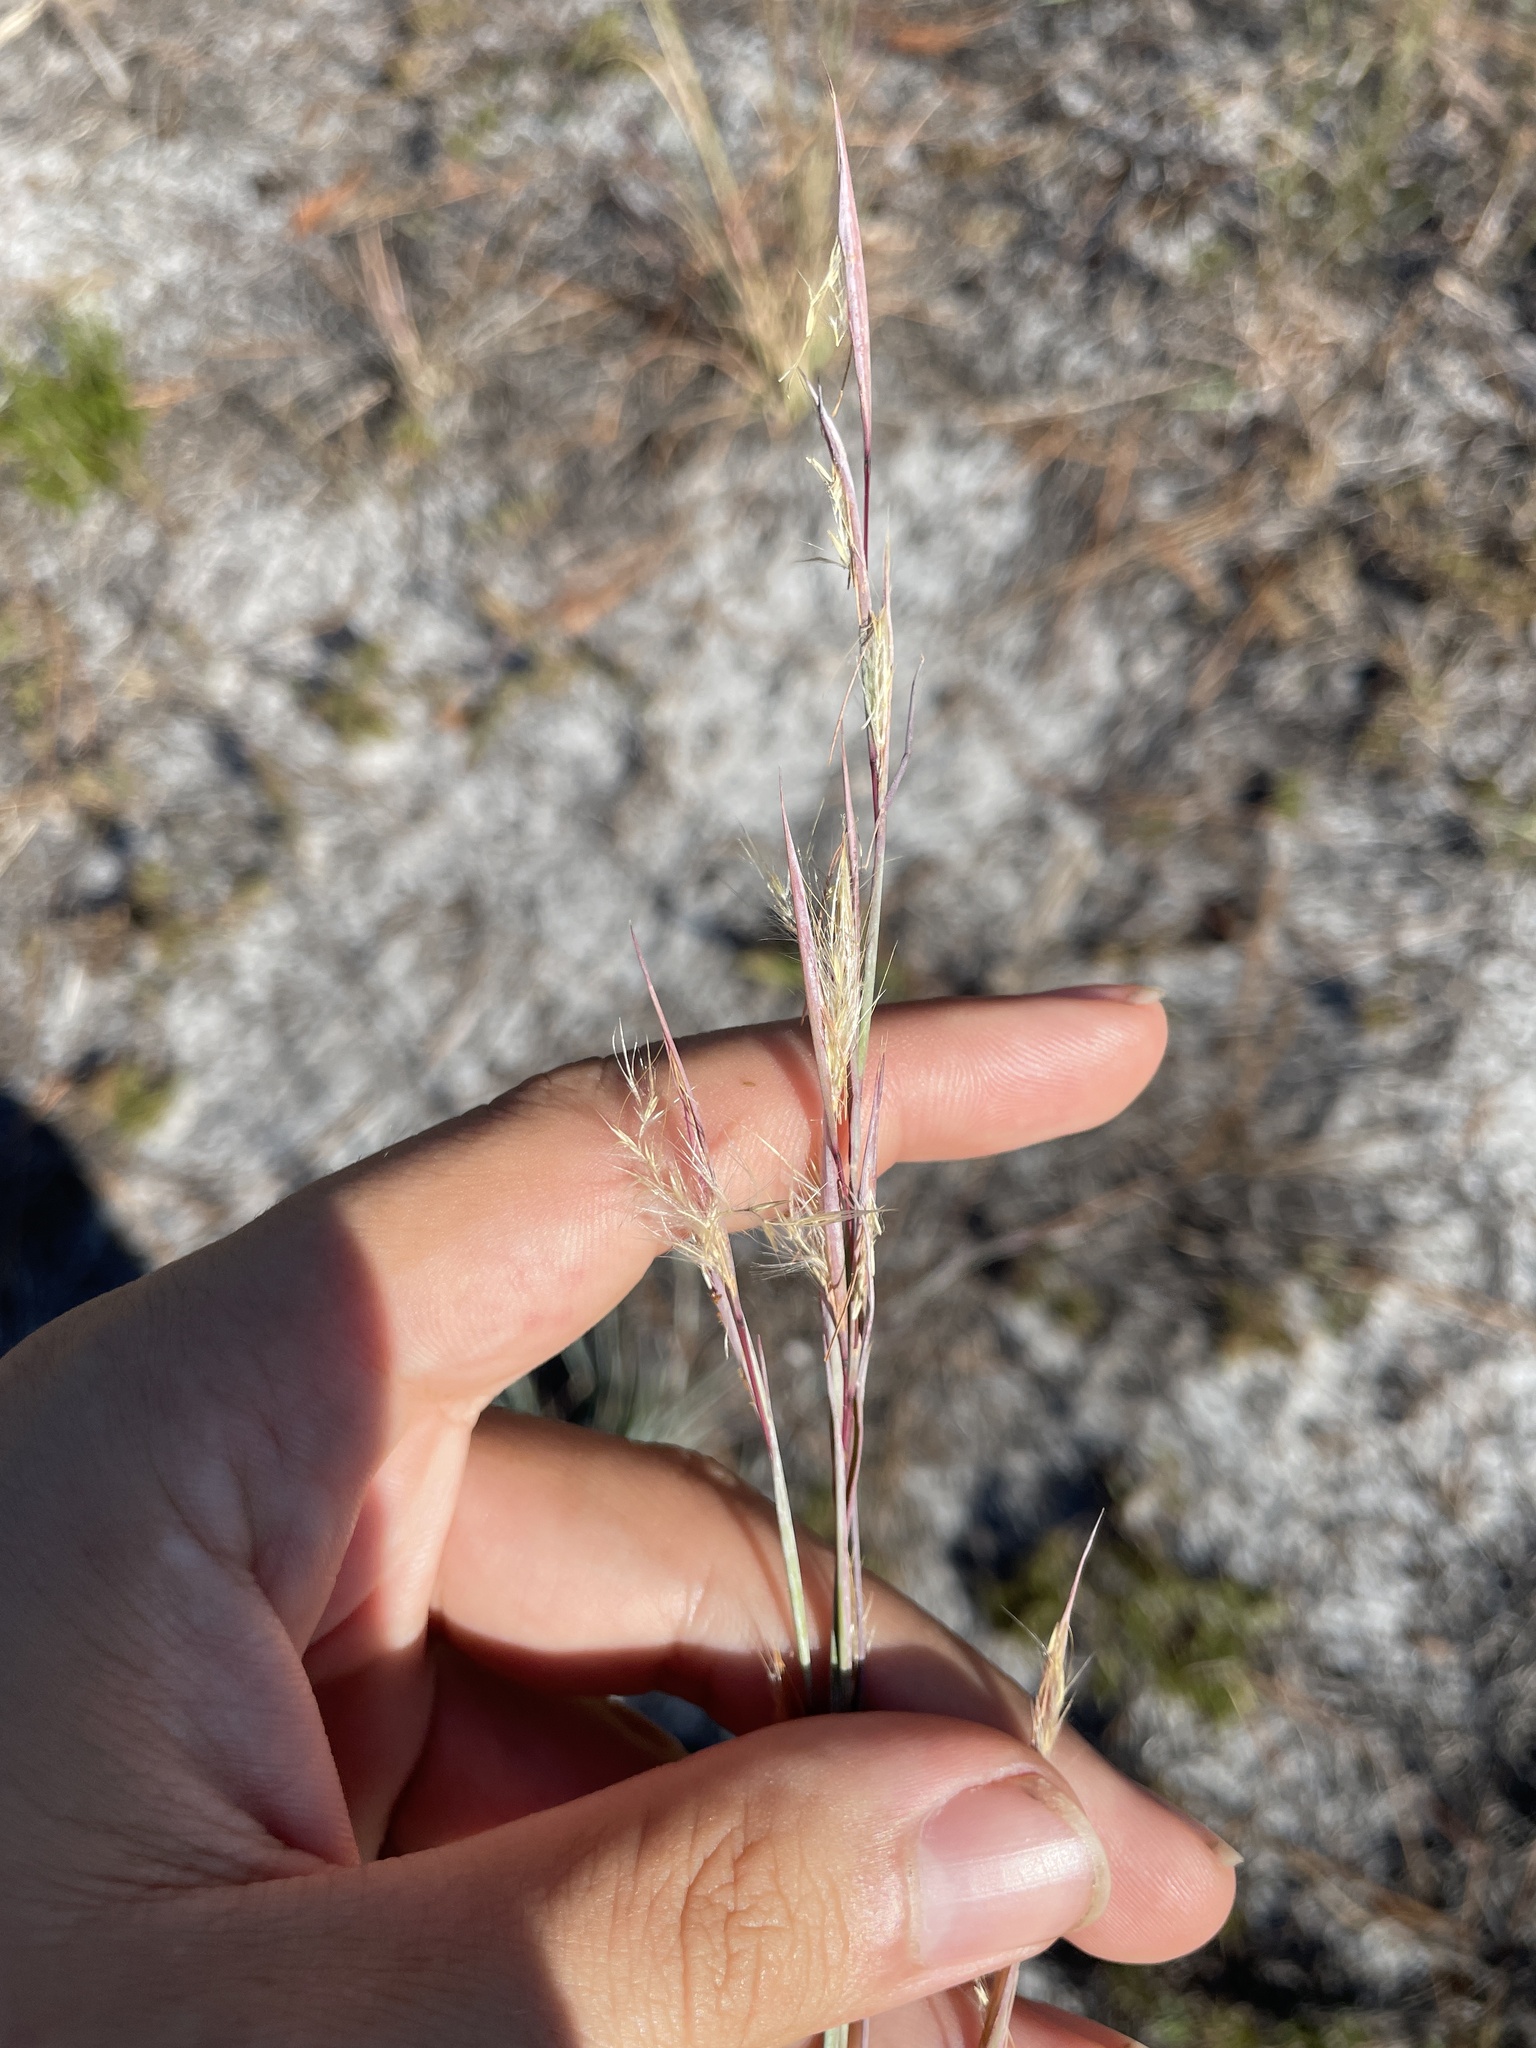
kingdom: Plantae
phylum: Tracheophyta
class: Liliopsida
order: Poales
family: Poaceae
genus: Andropogon
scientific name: Andropogon capillipes
